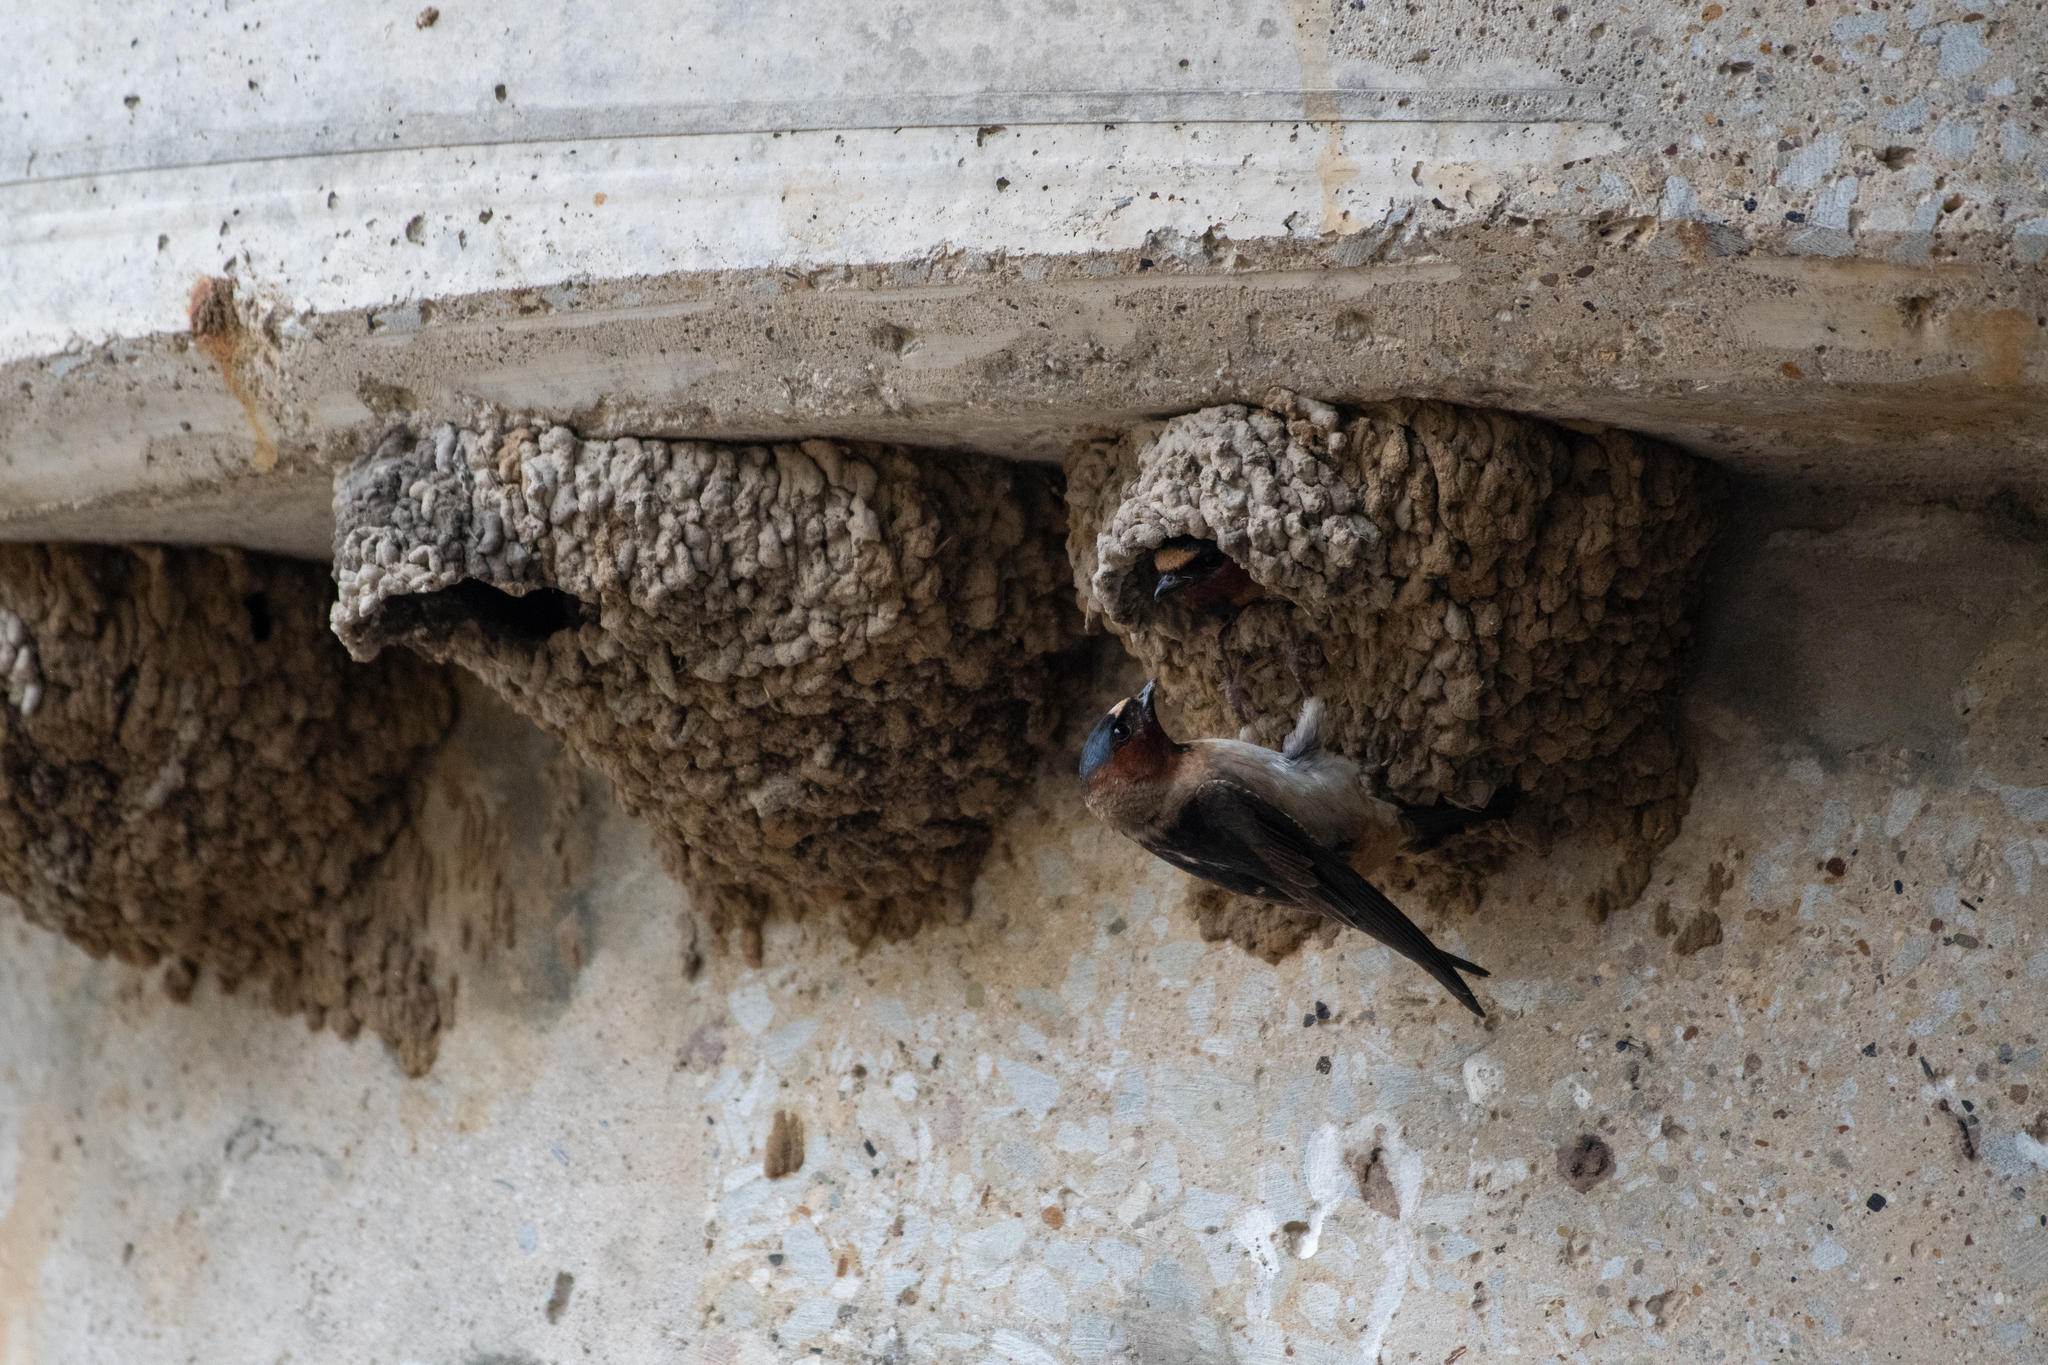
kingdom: Animalia
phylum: Chordata
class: Aves
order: Passeriformes
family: Hirundinidae
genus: Petrochelidon
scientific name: Petrochelidon pyrrhonota
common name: American cliff swallow
